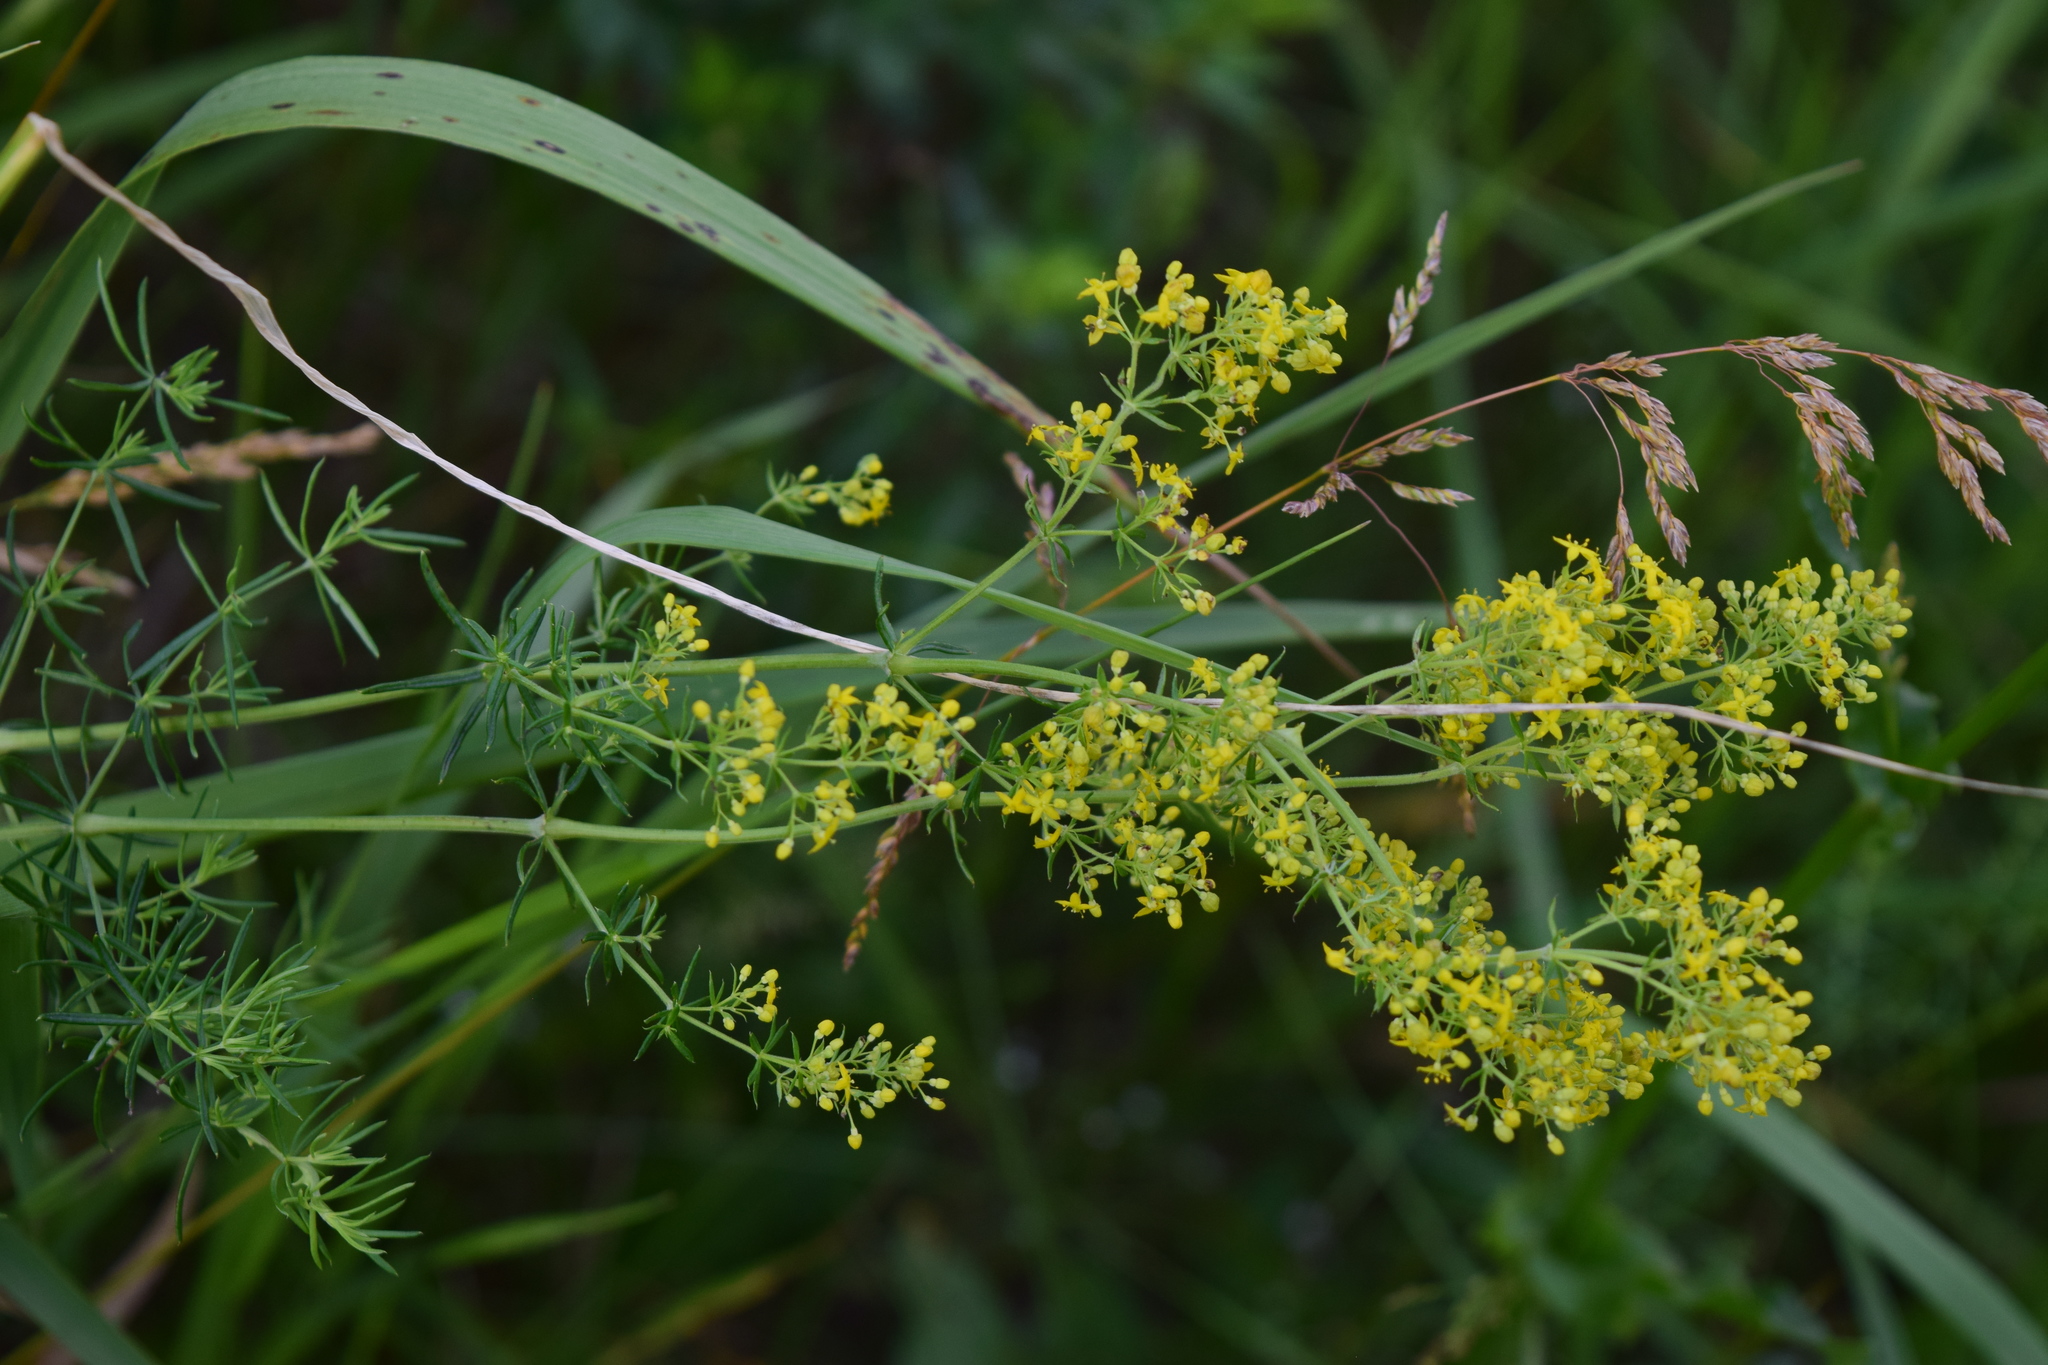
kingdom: Plantae
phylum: Tracheophyta
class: Magnoliopsida
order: Gentianales
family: Rubiaceae
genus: Galium
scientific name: Galium verum
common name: Lady's bedstraw
